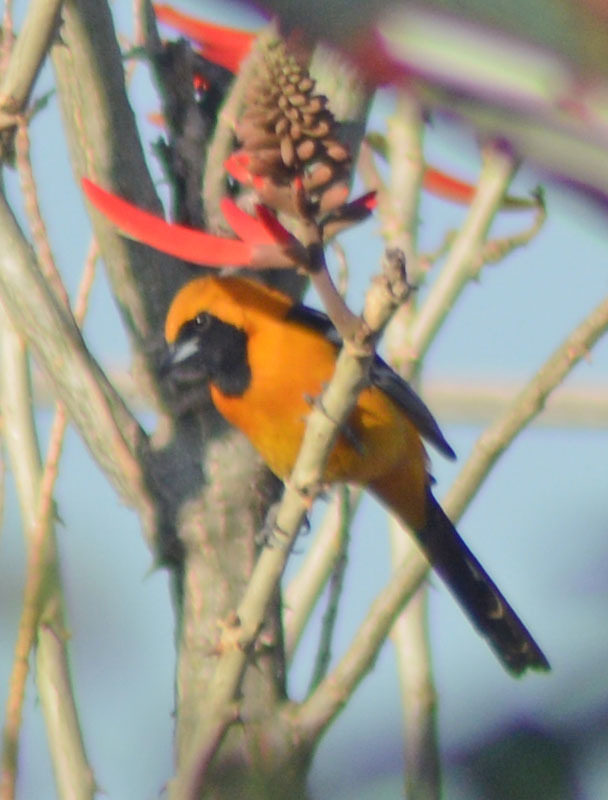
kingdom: Animalia
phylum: Chordata
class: Aves
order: Passeriformes
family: Icteridae
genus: Icterus
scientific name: Icterus cucullatus
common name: Hooded oriole
